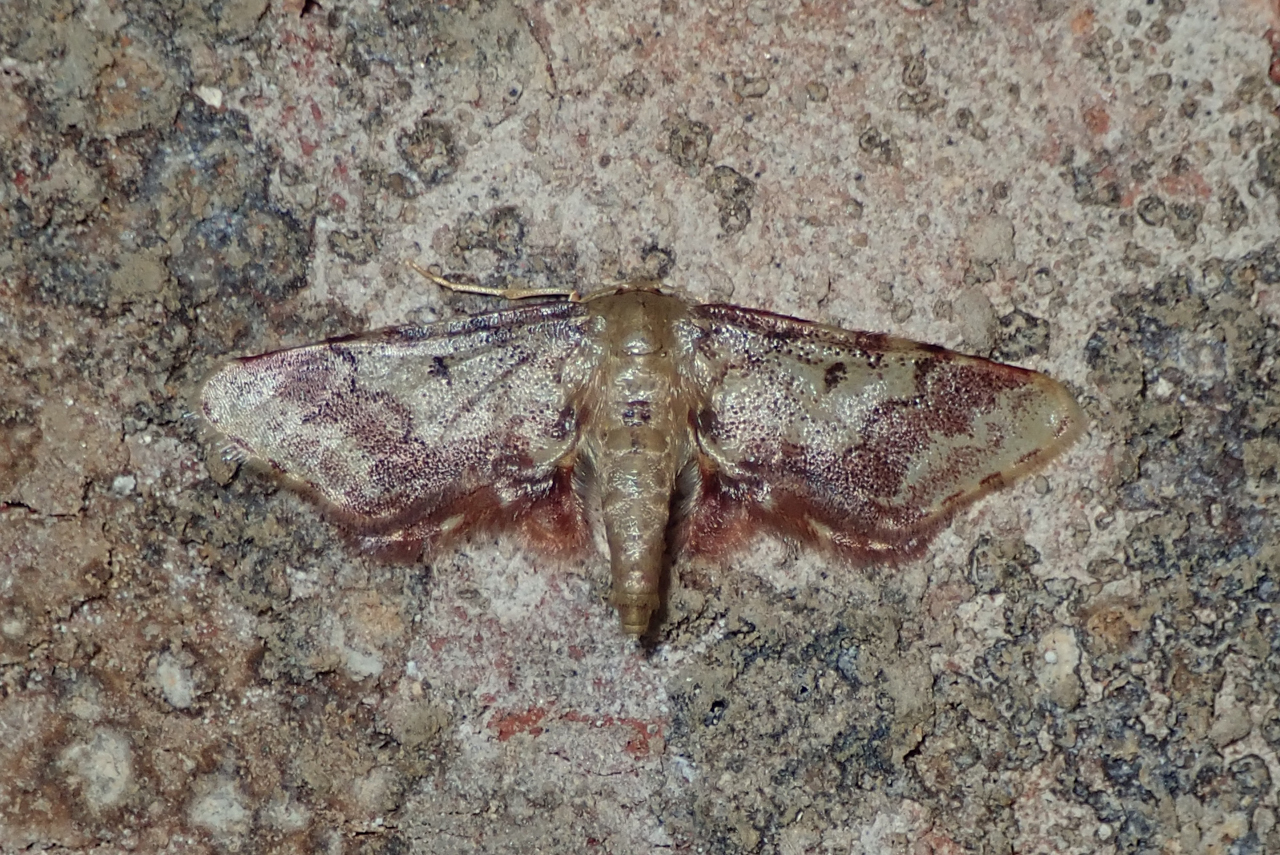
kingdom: Animalia
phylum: Arthropoda
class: Insecta
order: Lepidoptera
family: Geometridae
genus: Idaea
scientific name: Idaea furciferata
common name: Notch-winged wave
